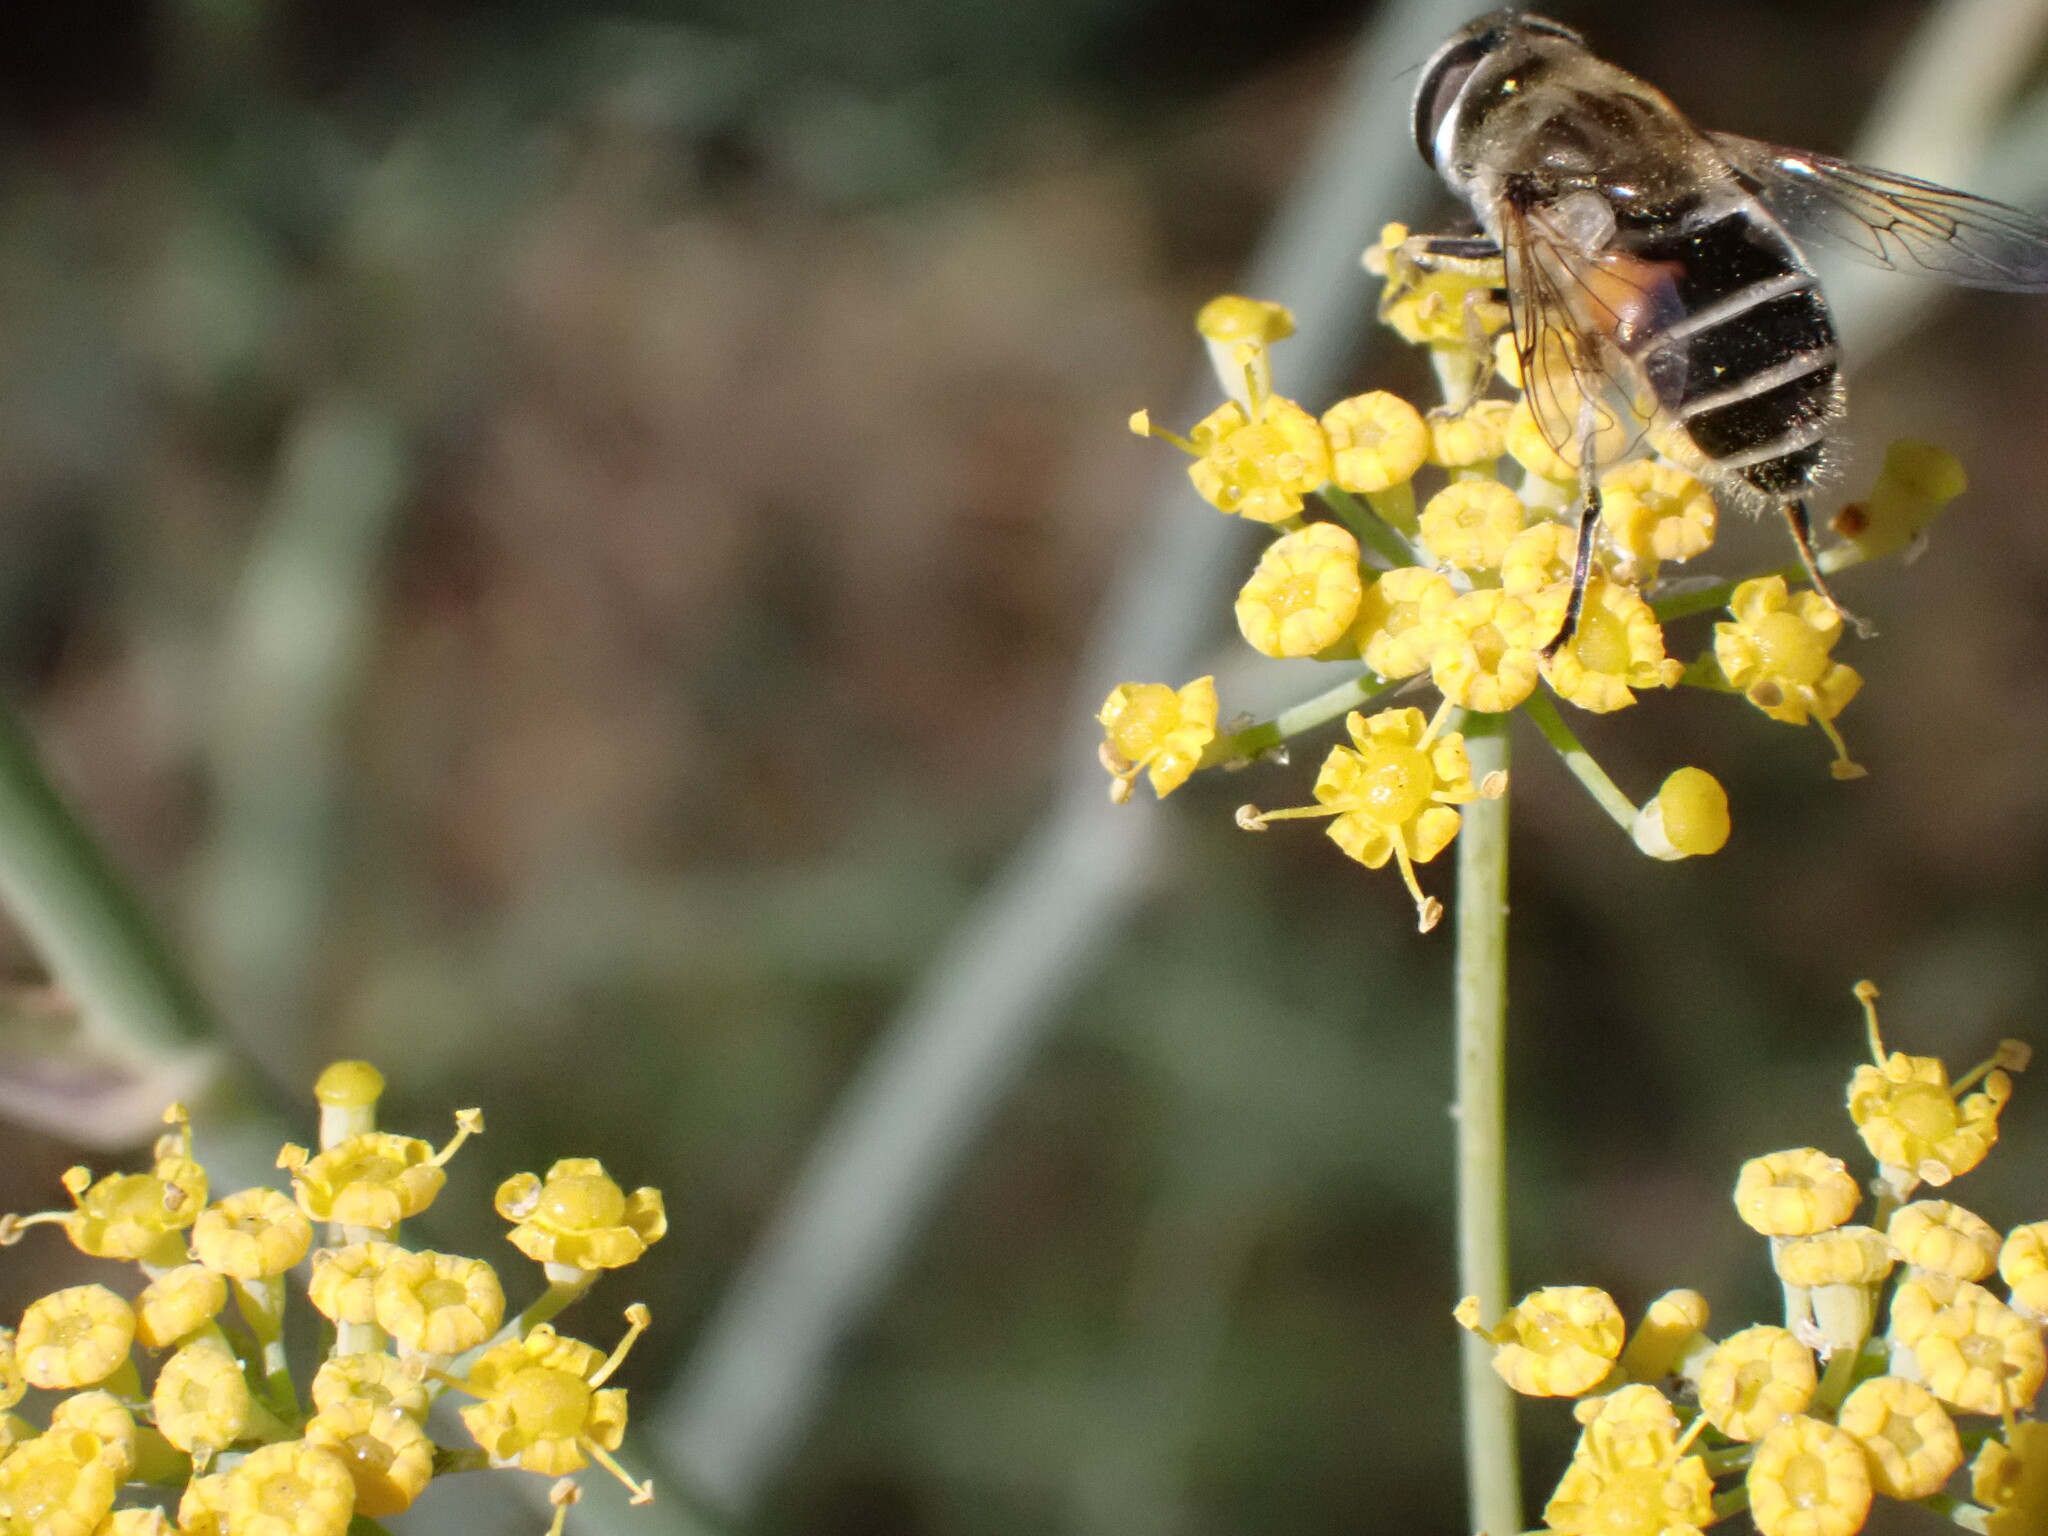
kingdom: Animalia
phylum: Arthropoda
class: Insecta
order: Diptera
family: Syrphidae
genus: Eristalis
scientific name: Eristalis arbustorum
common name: Hover fly
